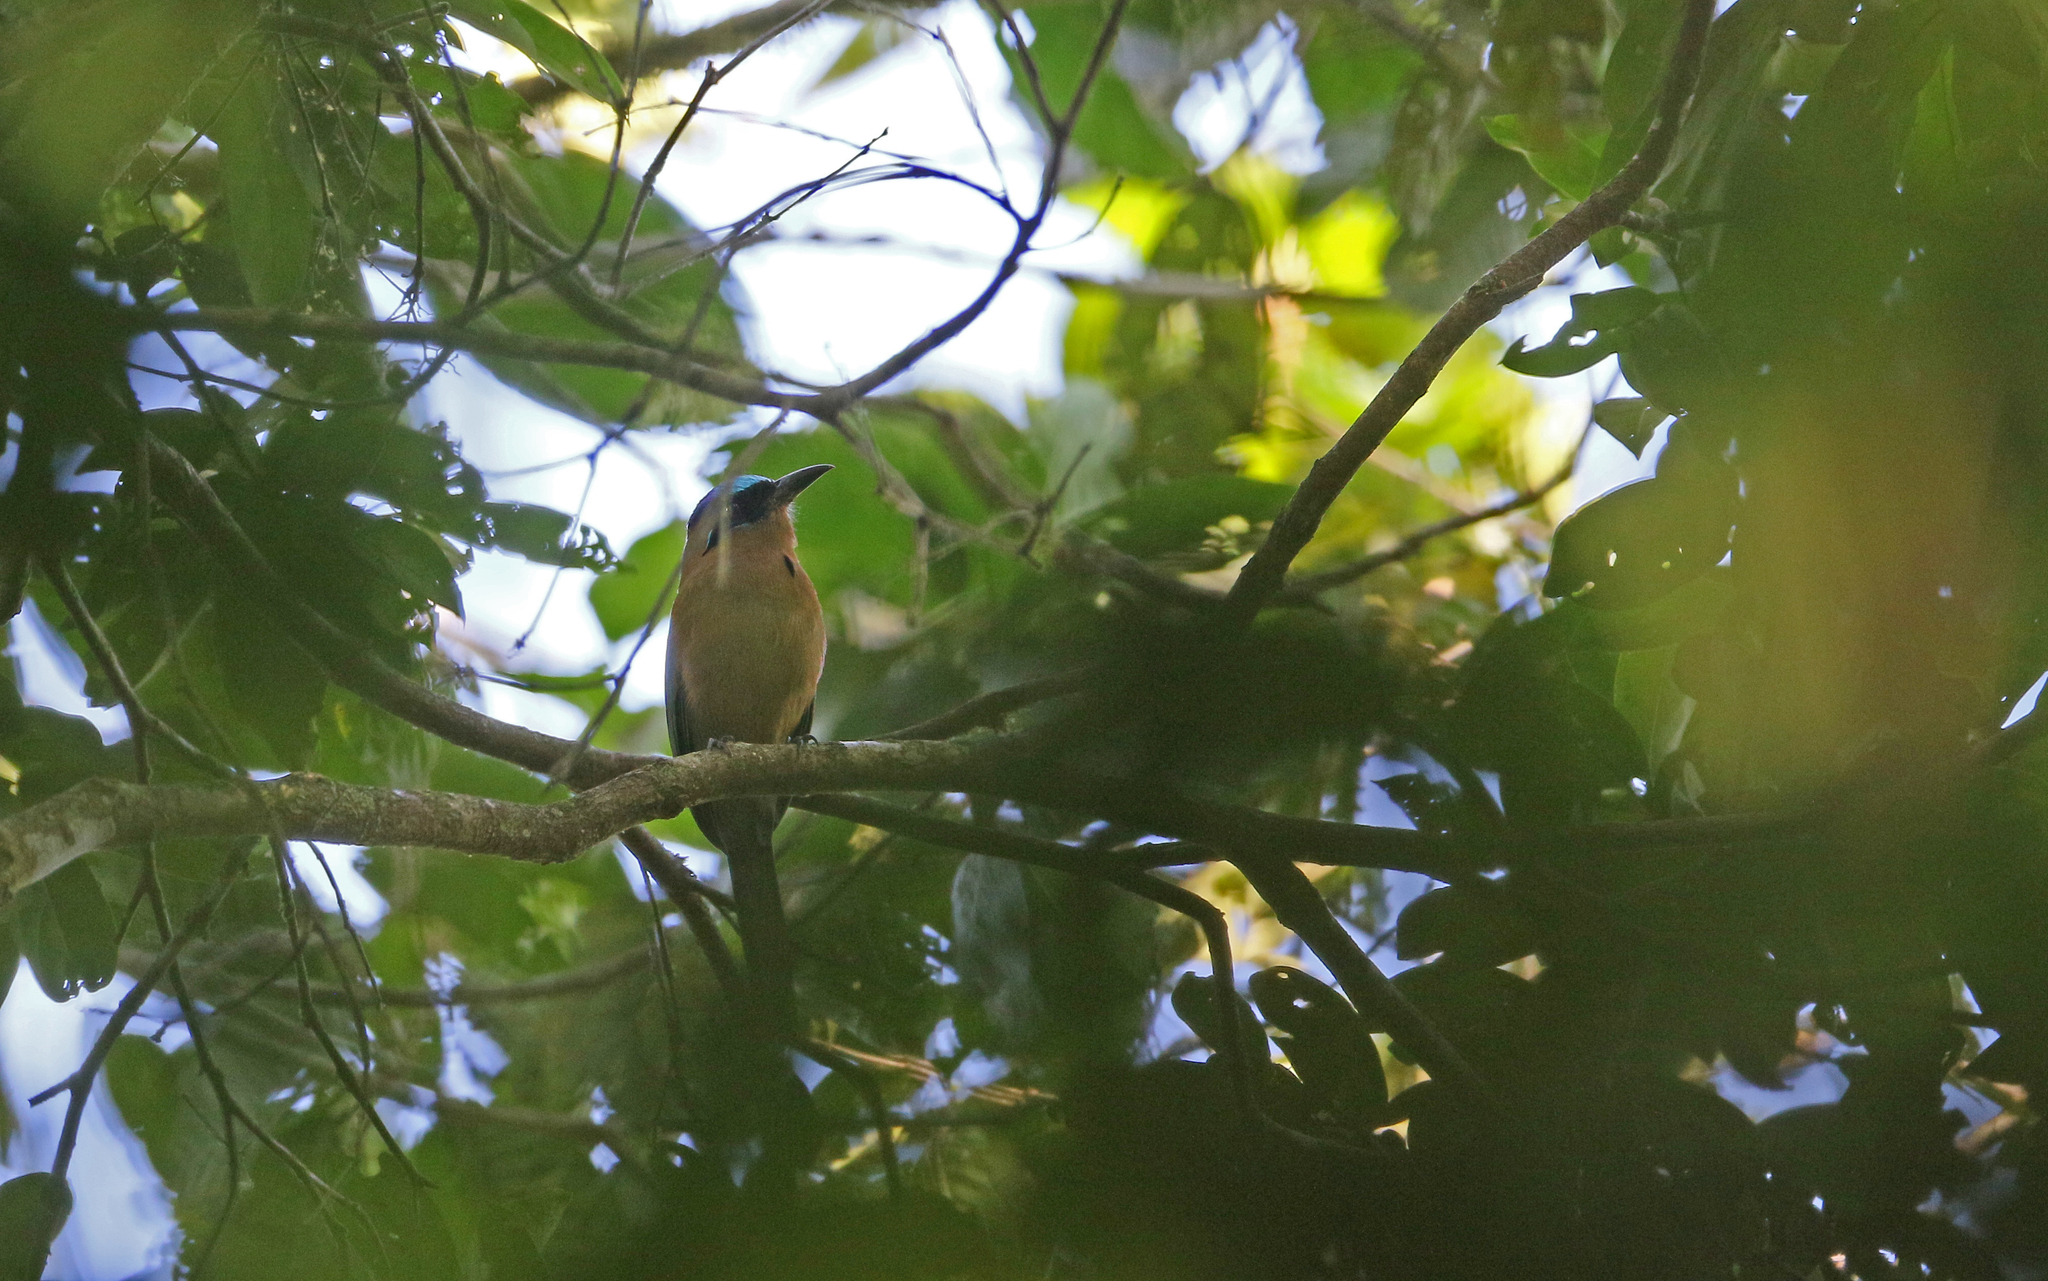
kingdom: Animalia
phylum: Chordata
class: Aves
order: Coraciiformes
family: Momotidae
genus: Momotus
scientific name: Momotus momota
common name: Amazonian motmot
